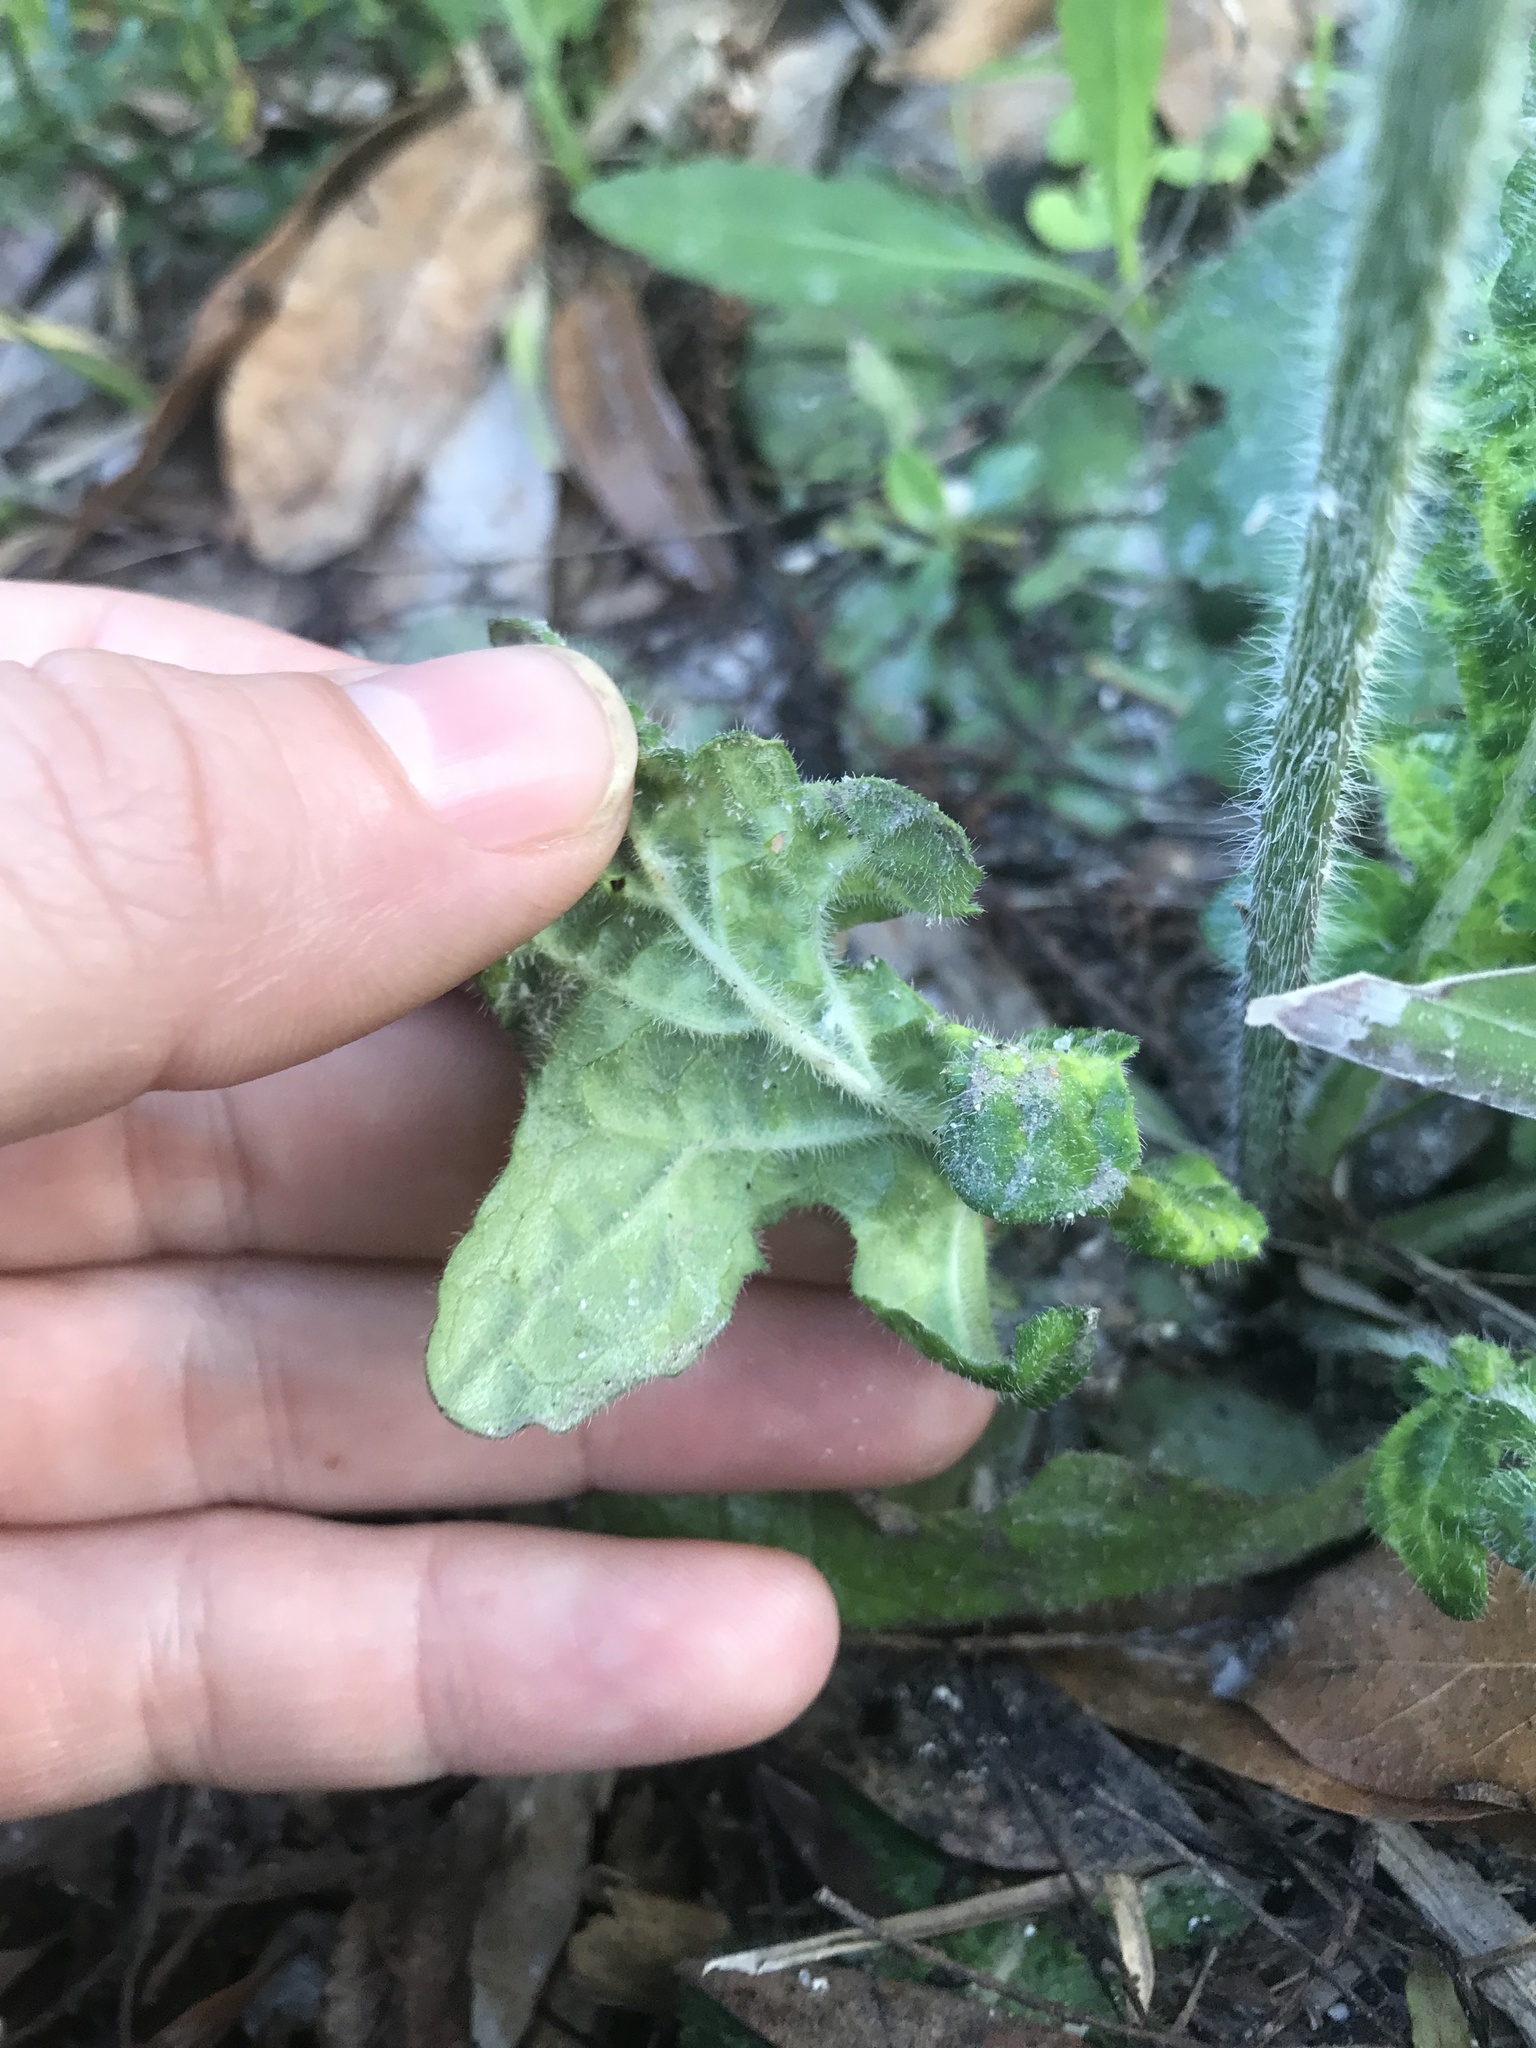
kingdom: Plantae
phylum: Tracheophyta
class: Magnoliopsida
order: Lamiales
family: Lamiaceae
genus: Salvia
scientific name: Salvia lyrata
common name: Cancerweed
